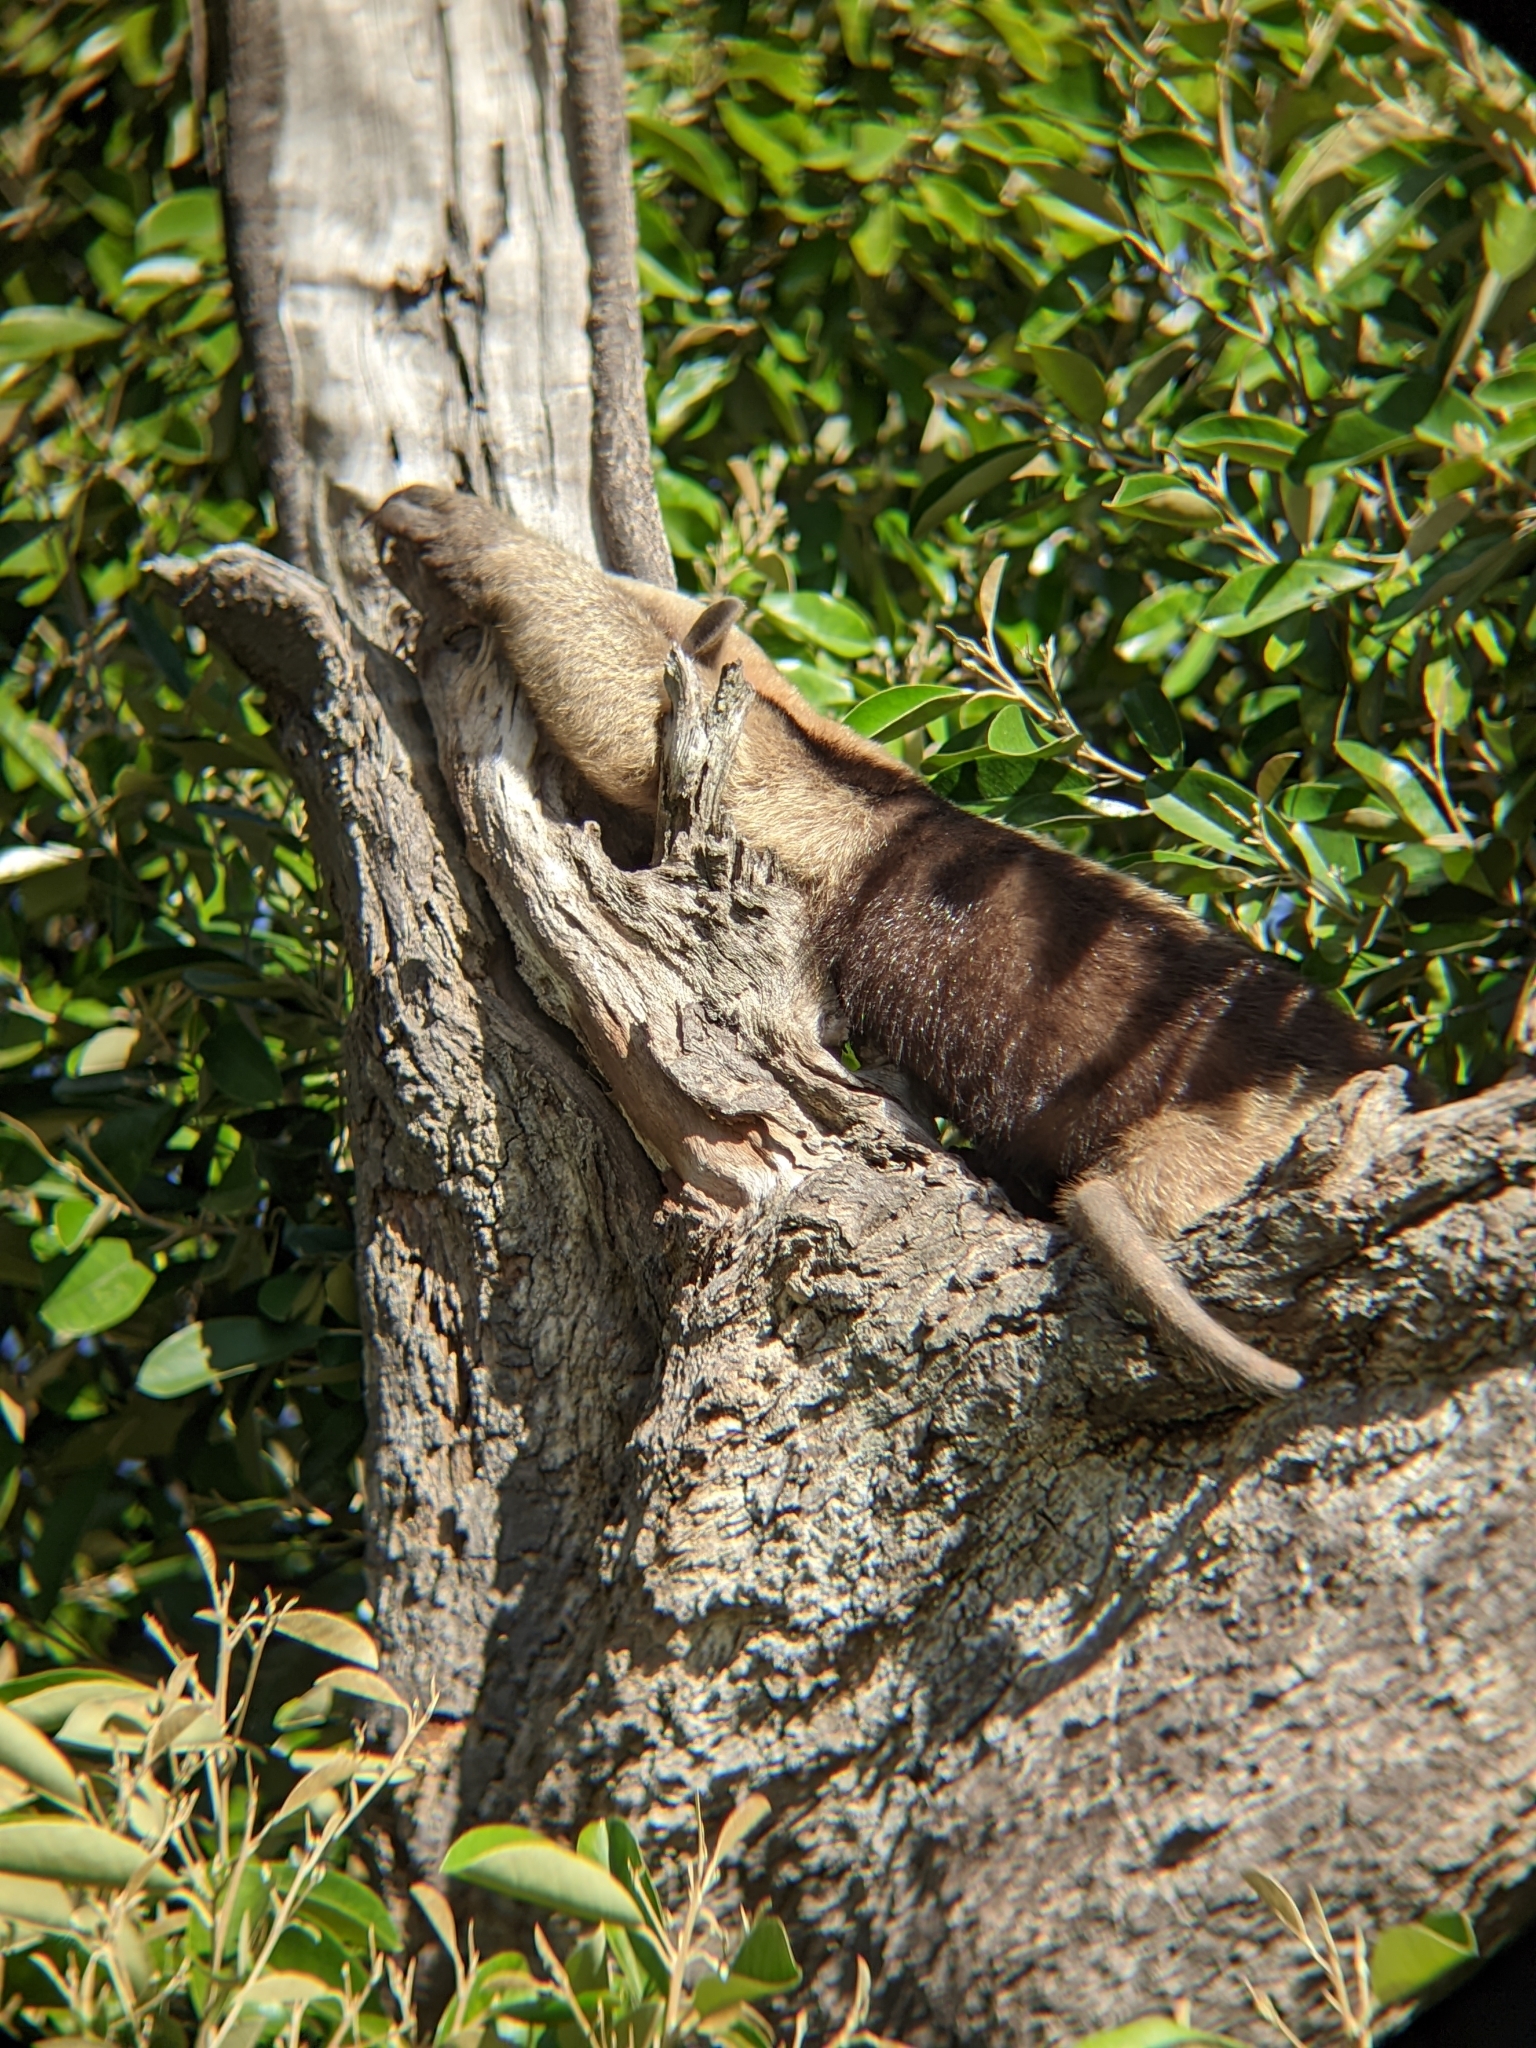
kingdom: Animalia
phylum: Chordata
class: Mammalia
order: Pilosa
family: Myrmecophagidae
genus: Tamandua
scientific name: Tamandua mexicana
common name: Northern tamandua
